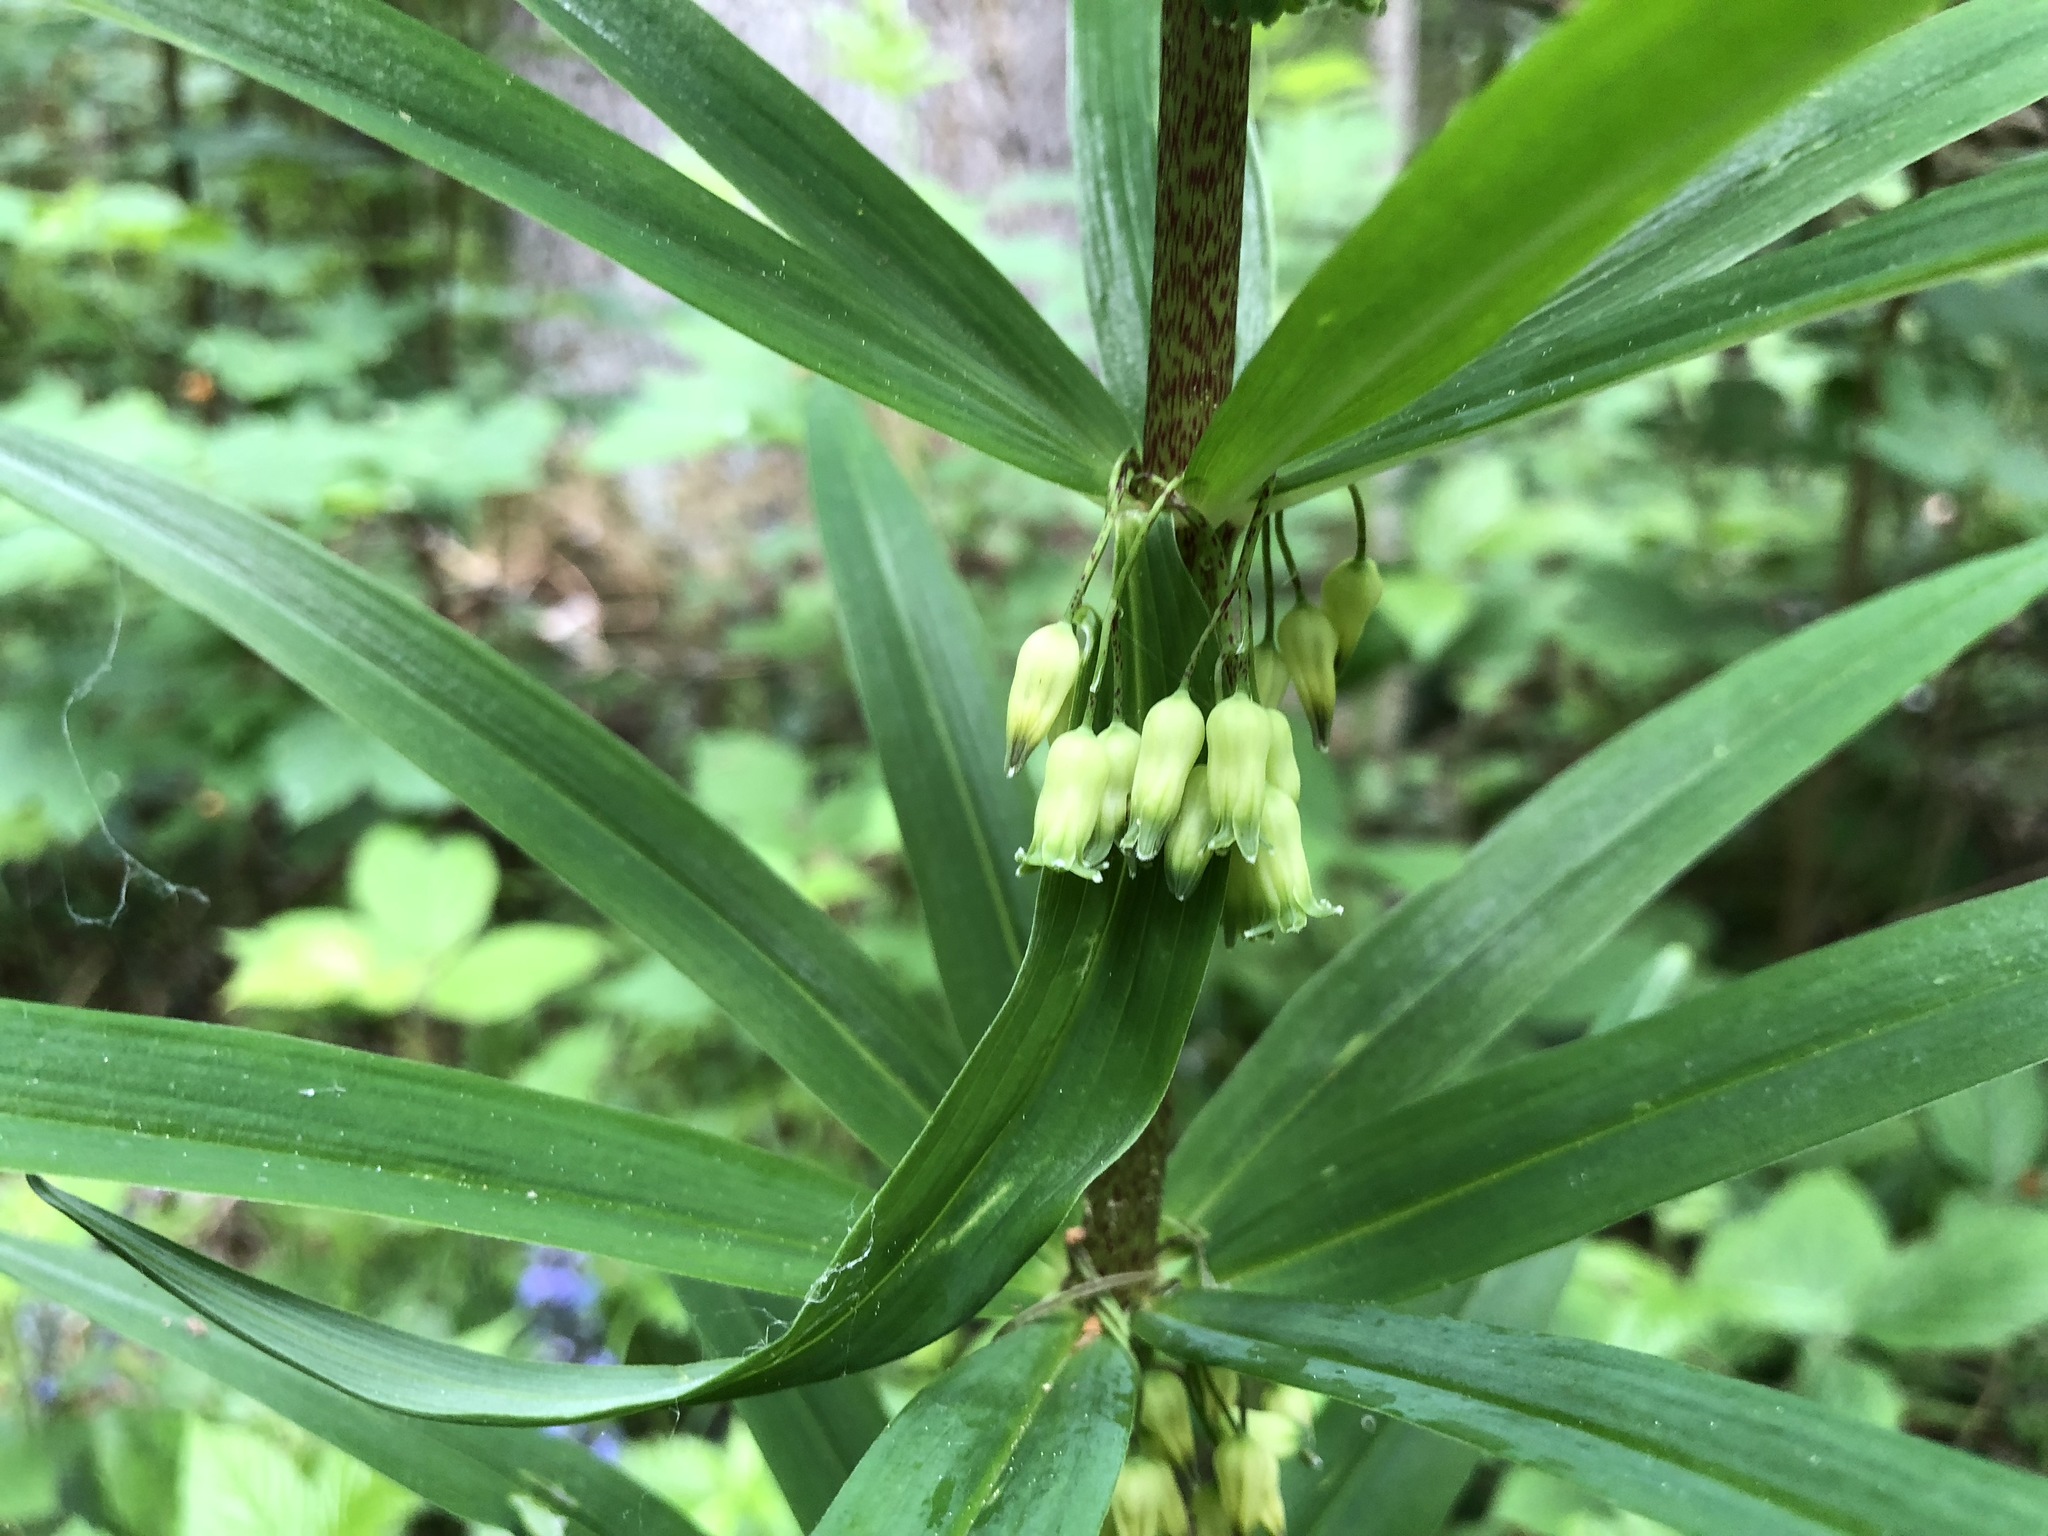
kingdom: Plantae
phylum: Tracheophyta
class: Liliopsida
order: Asparagales
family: Asparagaceae
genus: Polygonatum
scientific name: Polygonatum verticillatum
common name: Whorled solomon's-seal
